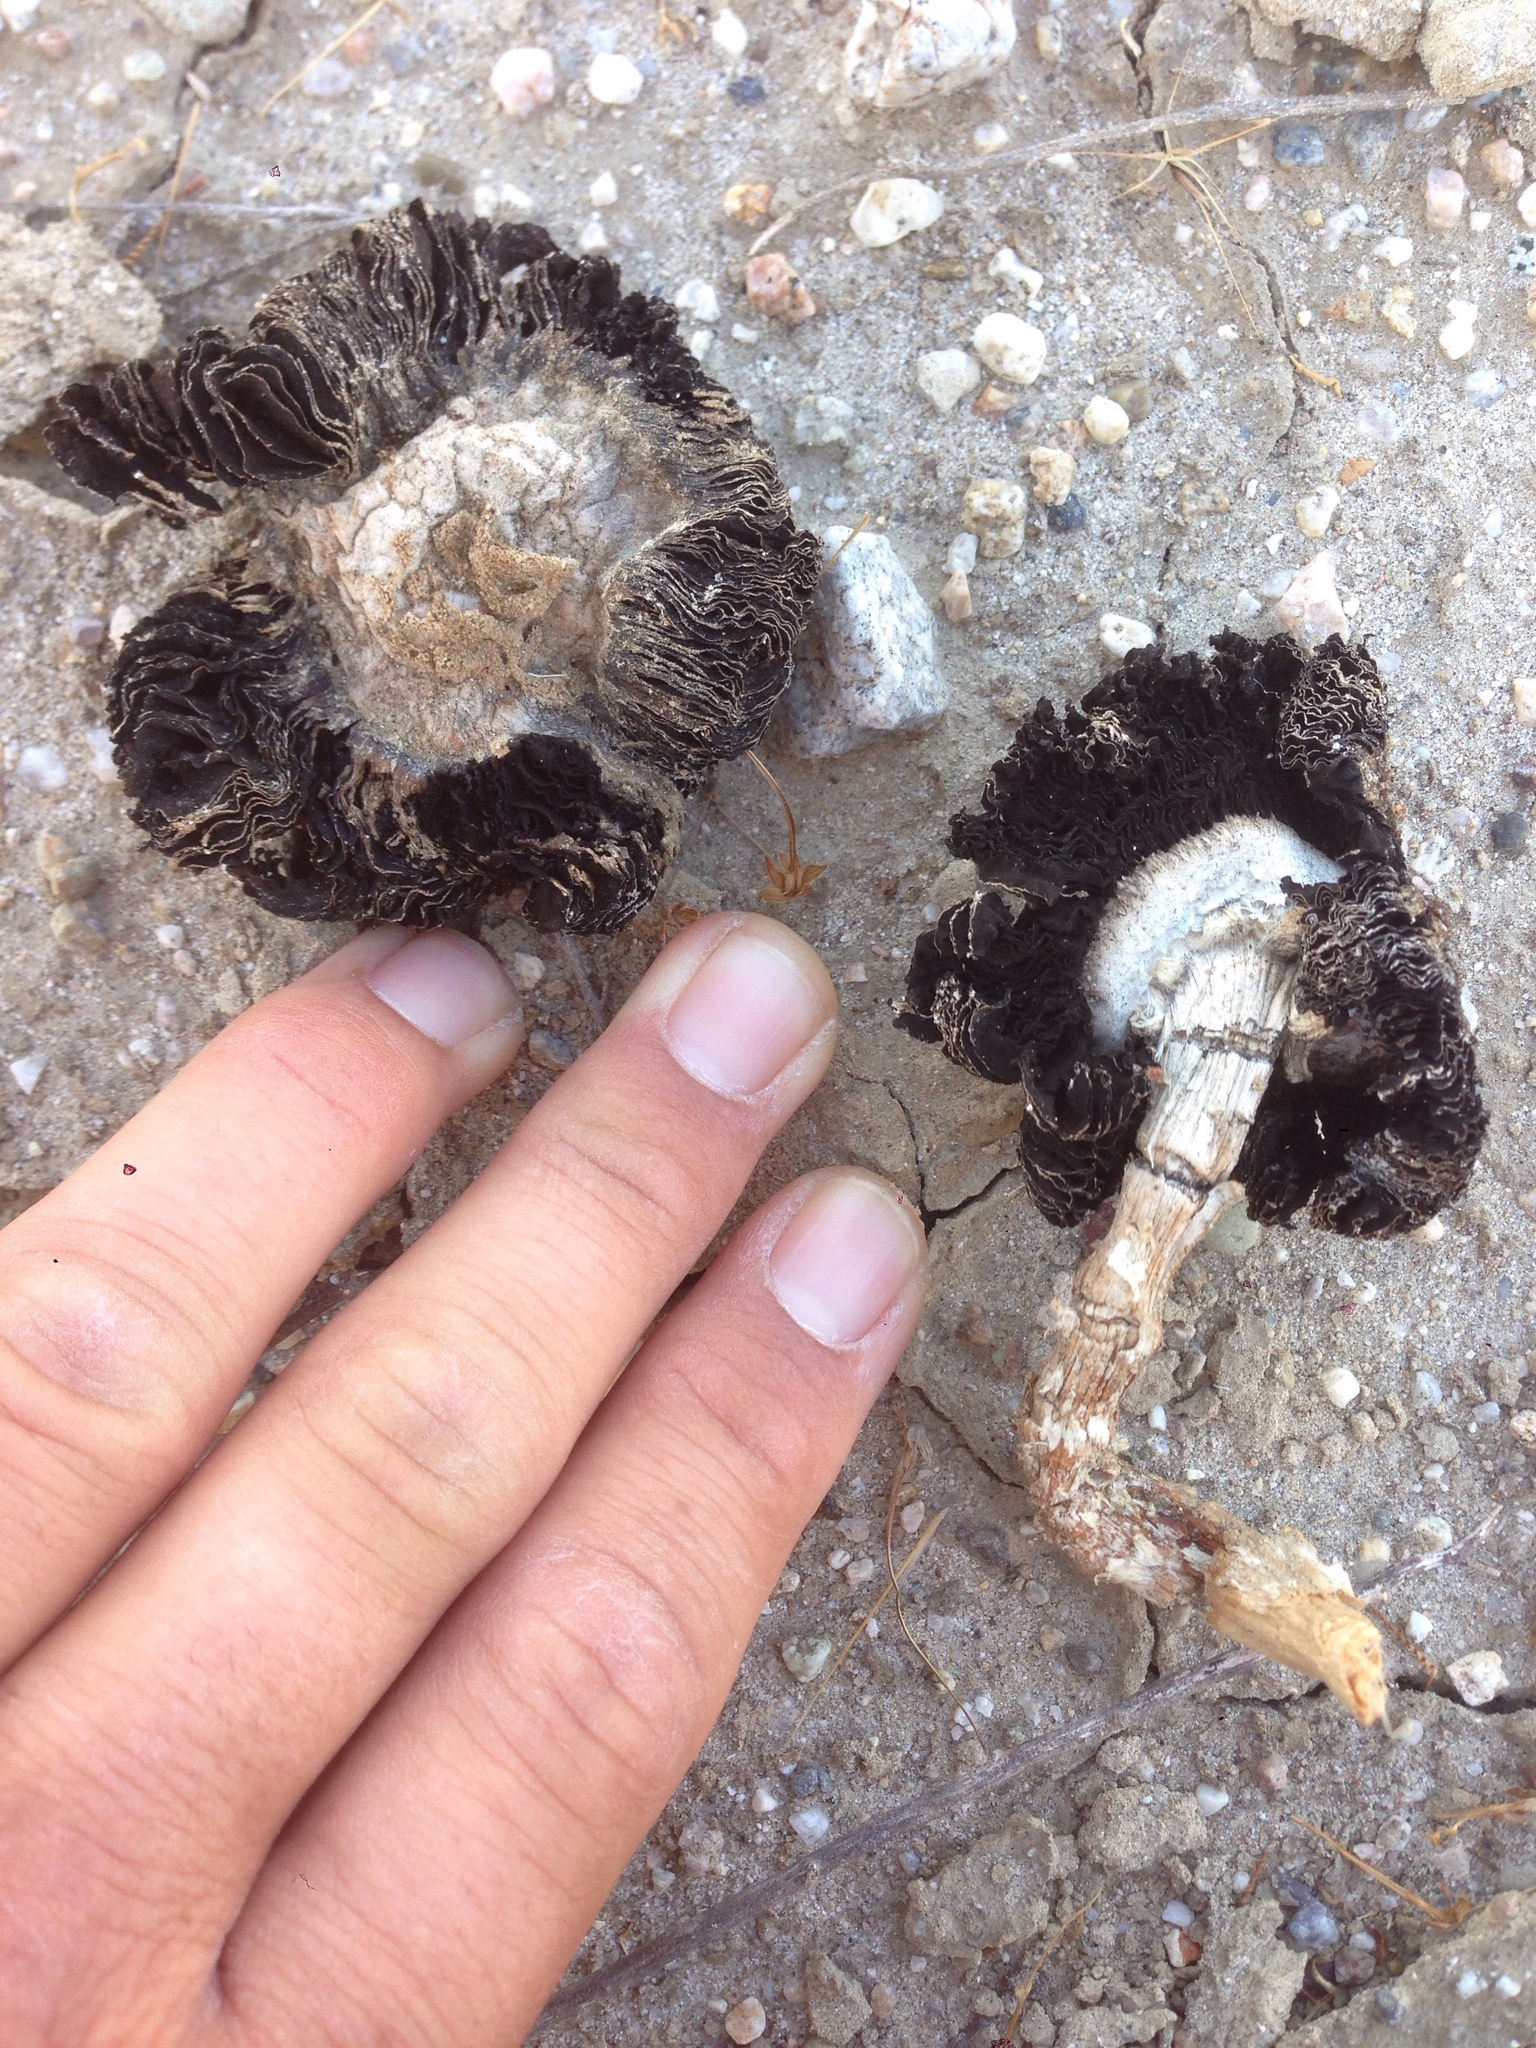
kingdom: Fungi
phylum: Basidiomycota
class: Agaricomycetes
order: Agaricales
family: Agaricaceae
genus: Montagnea
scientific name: Montagnea arenaria
